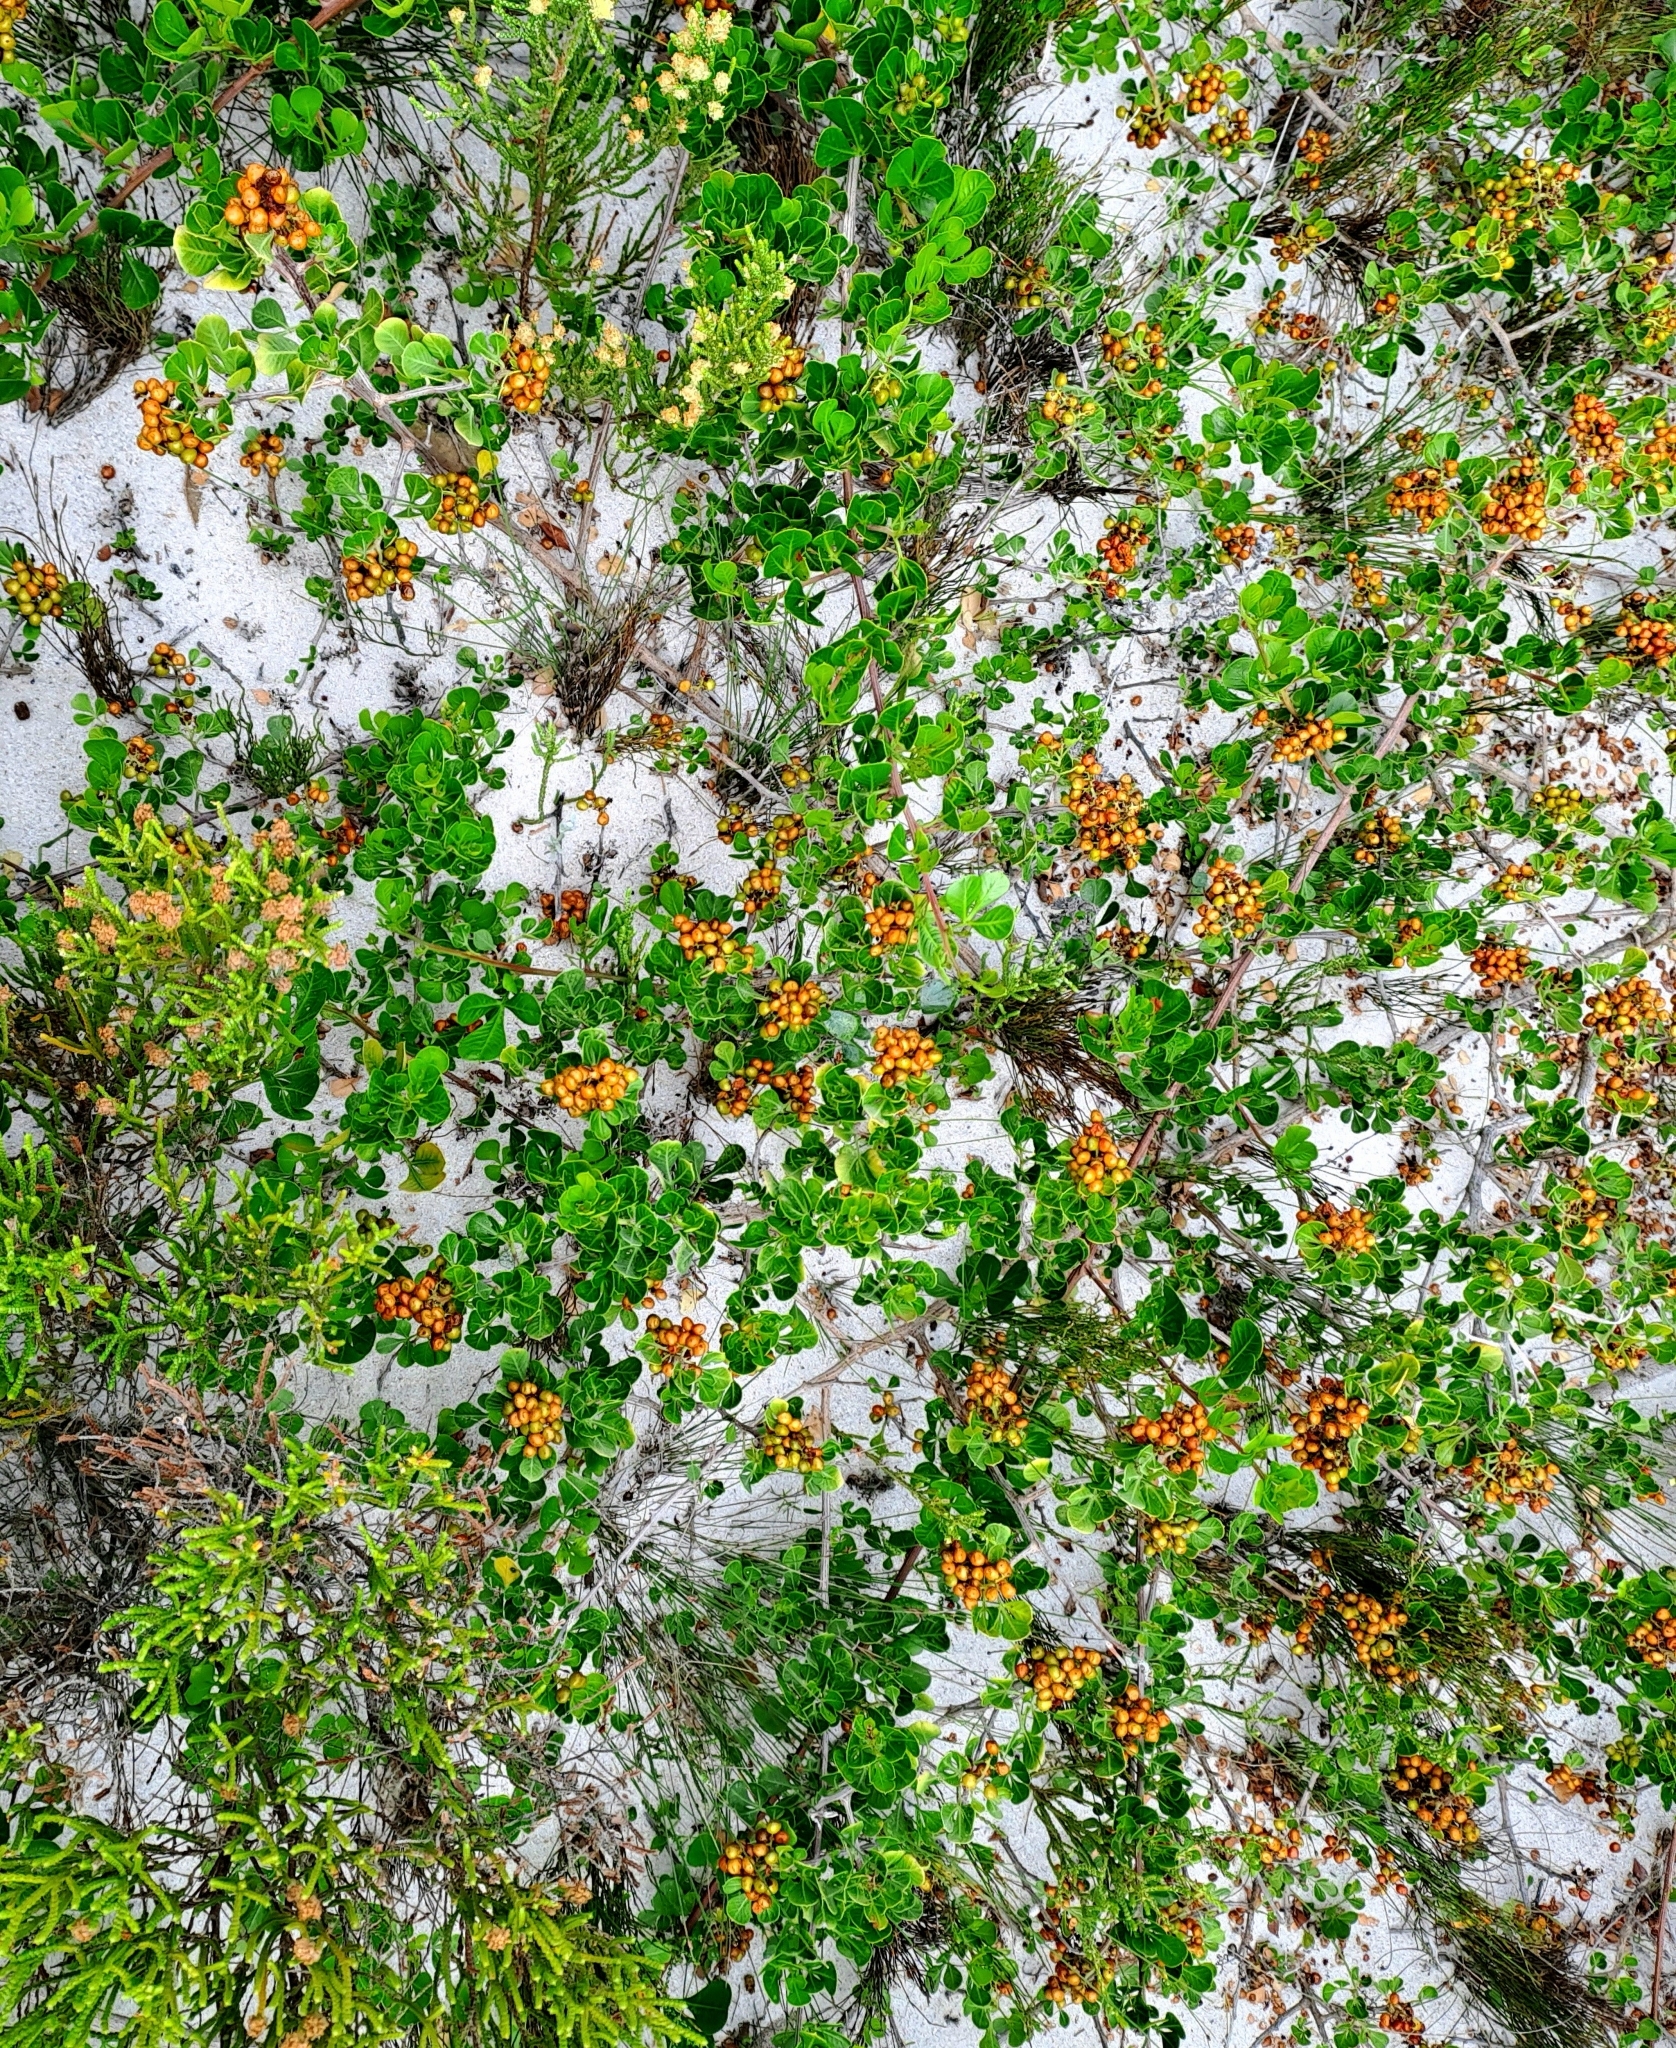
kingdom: Plantae
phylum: Tracheophyta
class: Magnoliopsida
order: Sapindales
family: Anacardiaceae
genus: Searsia
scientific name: Searsia glauca
